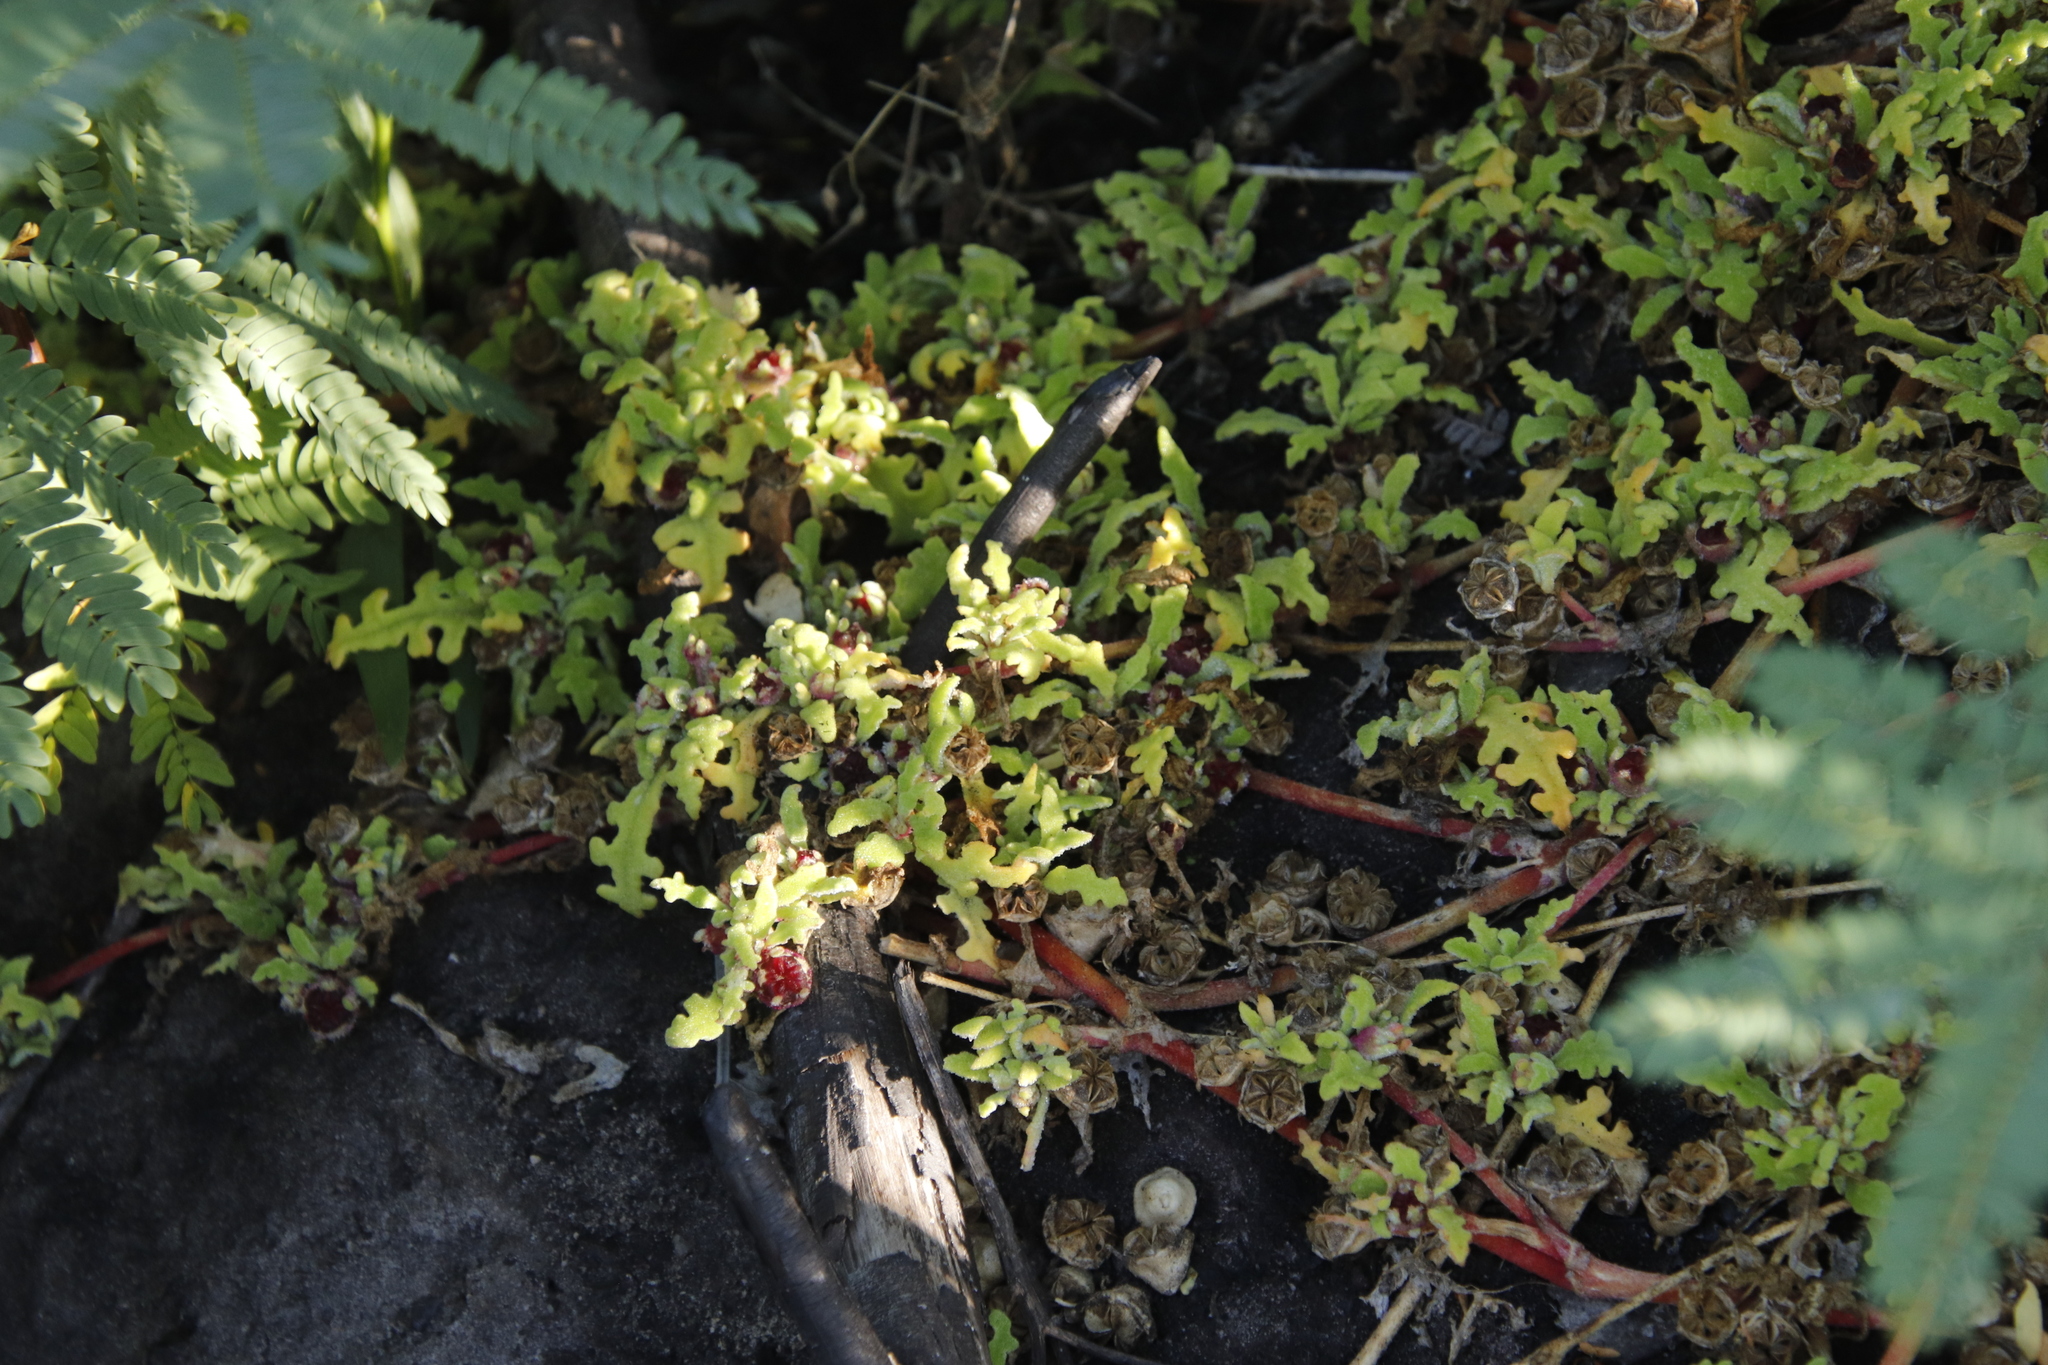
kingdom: Plantae
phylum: Tracheophyta
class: Magnoliopsida
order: Caryophyllales
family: Aizoaceae
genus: Cleretum
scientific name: Cleretum herrei
